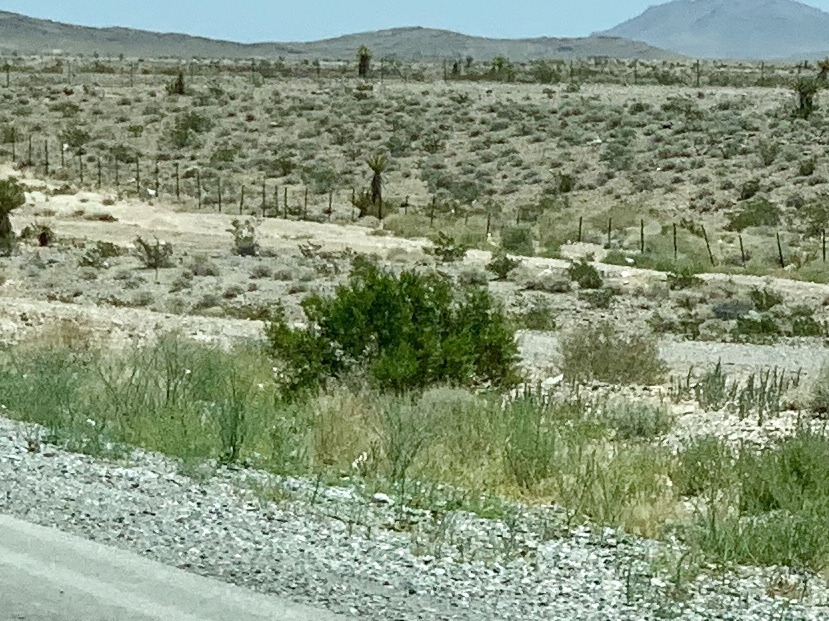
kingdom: Plantae
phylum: Tracheophyta
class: Magnoliopsida
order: Zygophyllales
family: Zygophyllaceae
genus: Larrea
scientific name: Larrea tridentata
